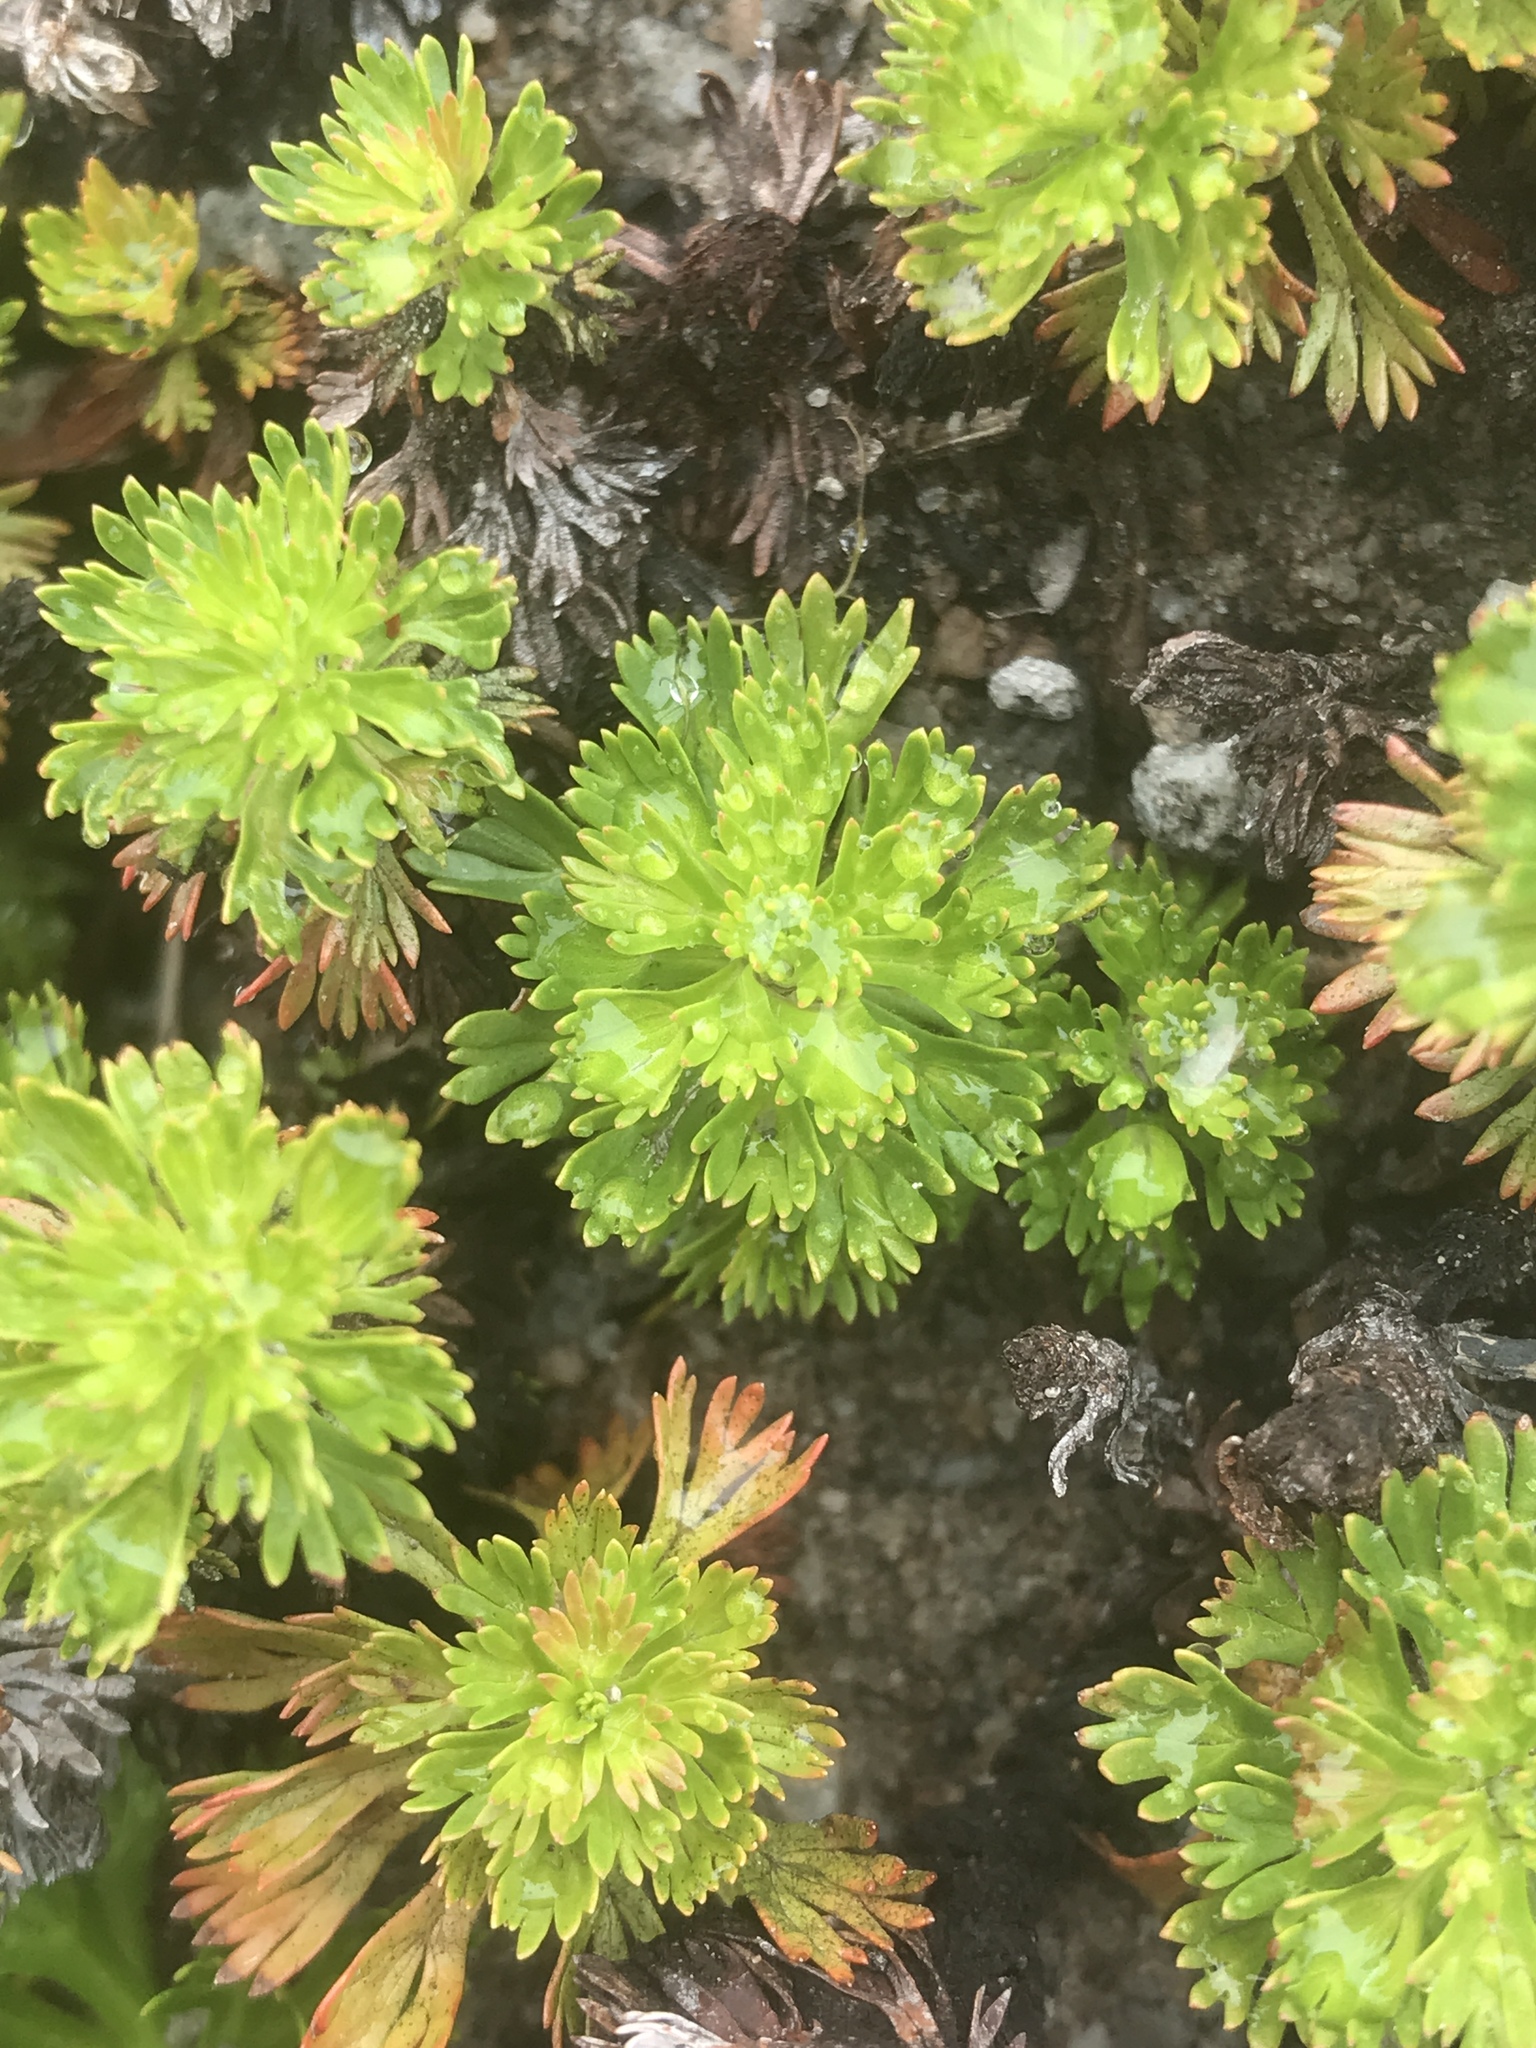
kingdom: Plantae
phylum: Tracheophyta
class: Magnoliopsida
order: Rosales
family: Rosaceae
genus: Luetkea
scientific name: Luetkea pectinata
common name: Partridgefoot
